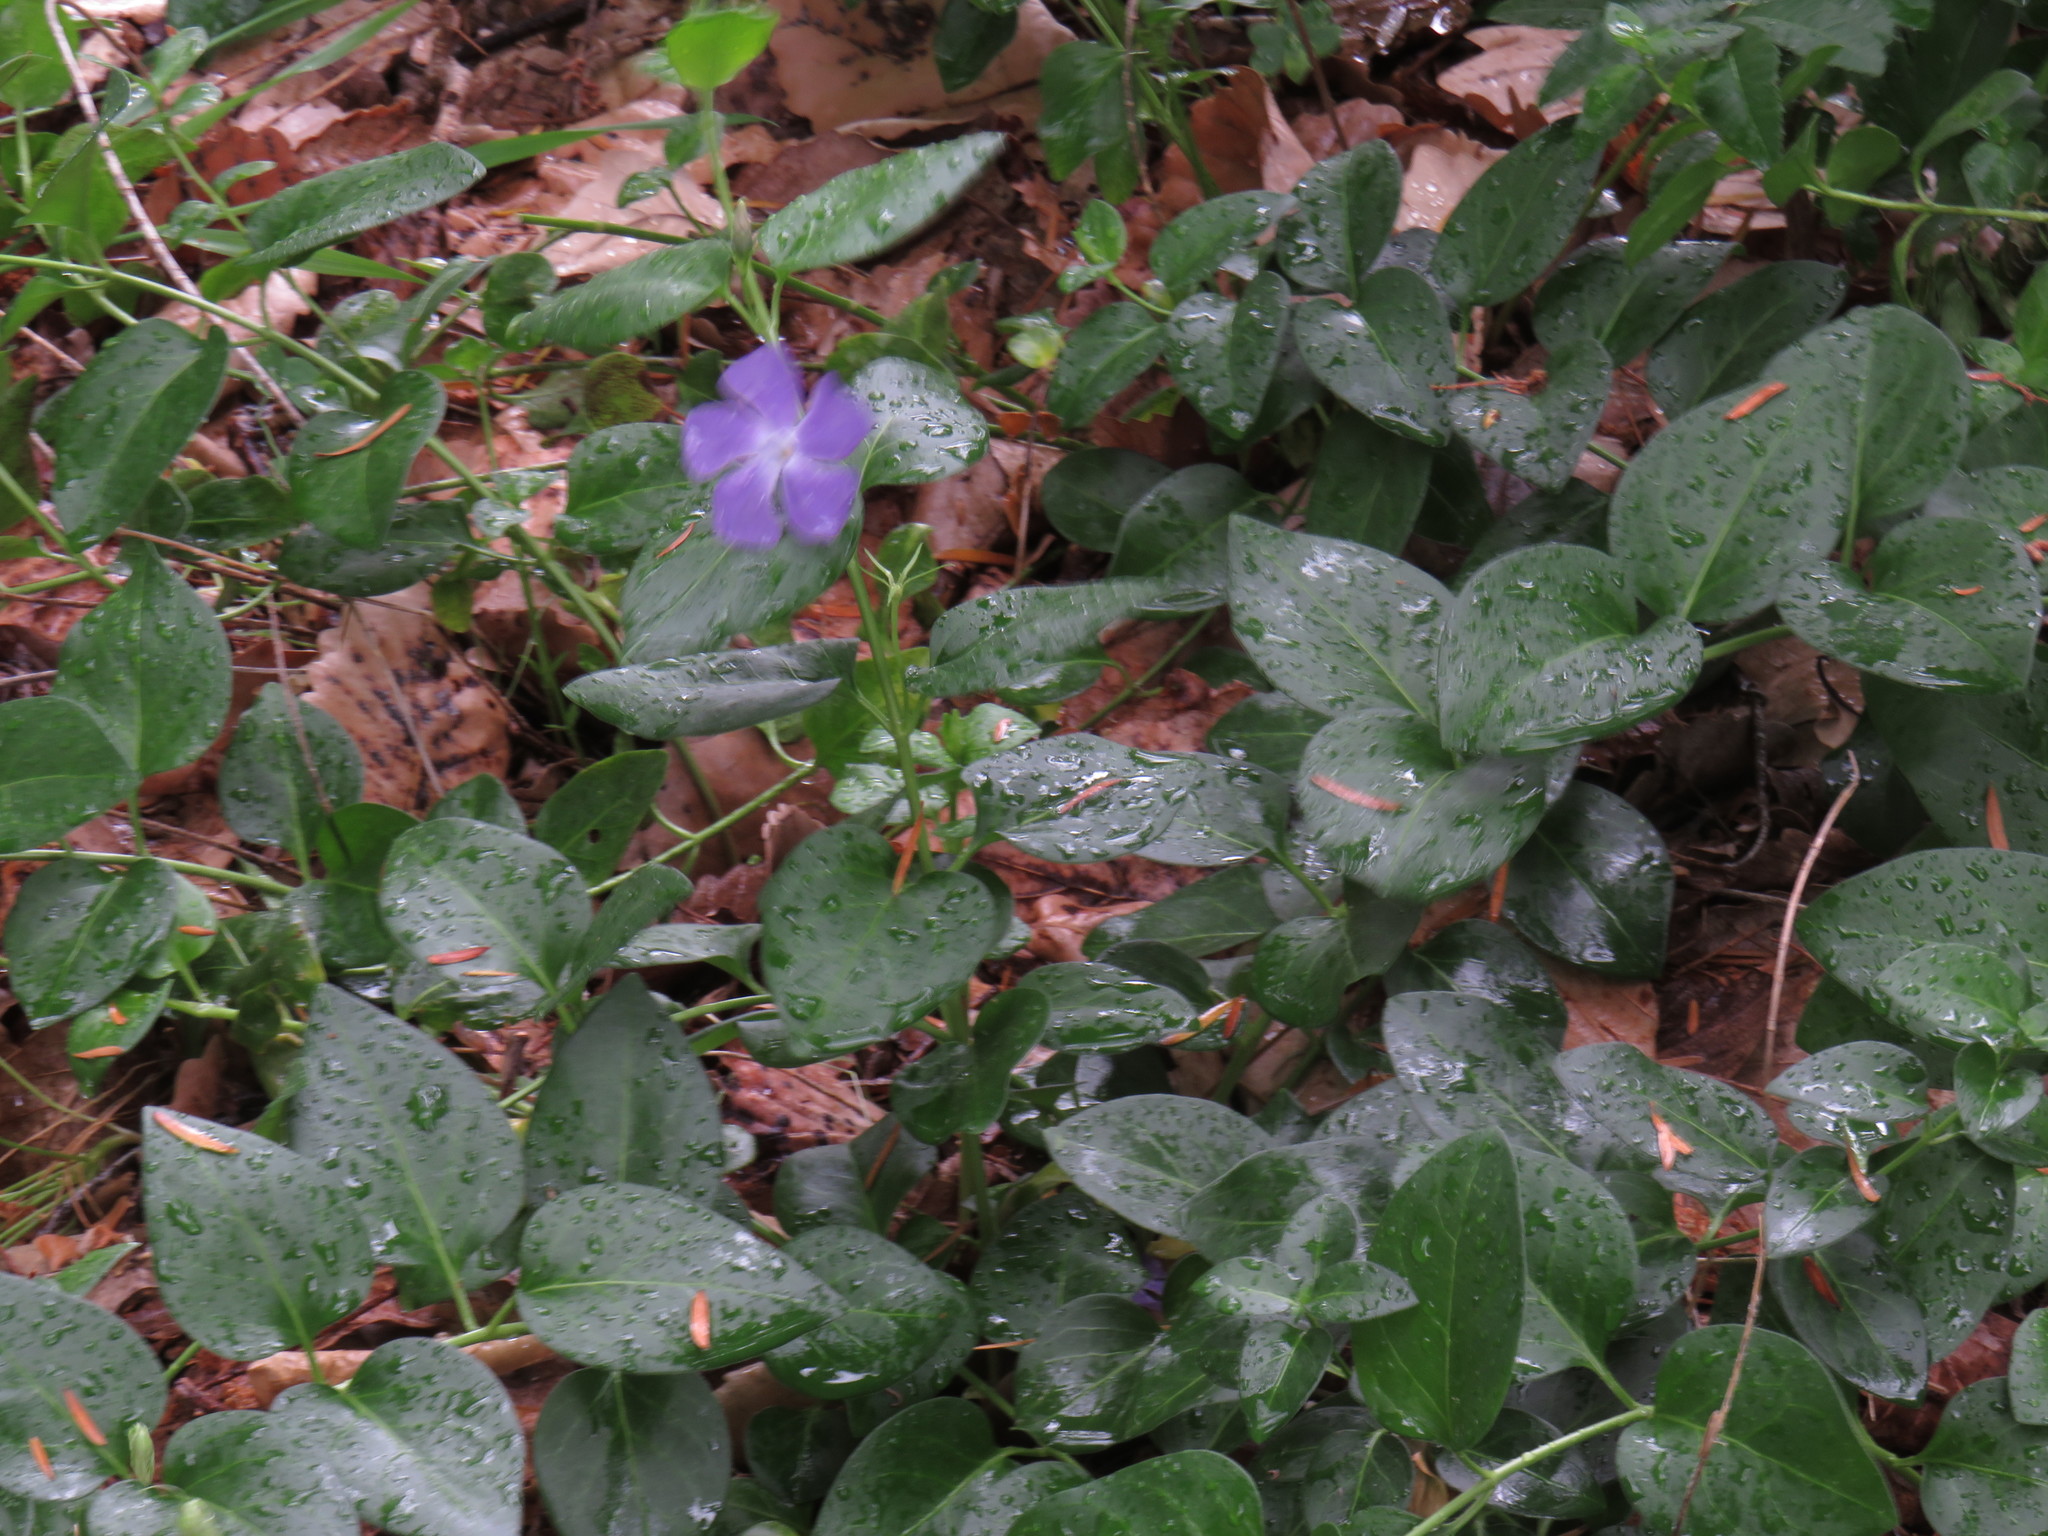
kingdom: Plantae
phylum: Tracheophyta
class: Magnoliopsida
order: Gentianales
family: Apocynaceae
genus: Vinca
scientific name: Vinca major
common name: Greater periwinkle
